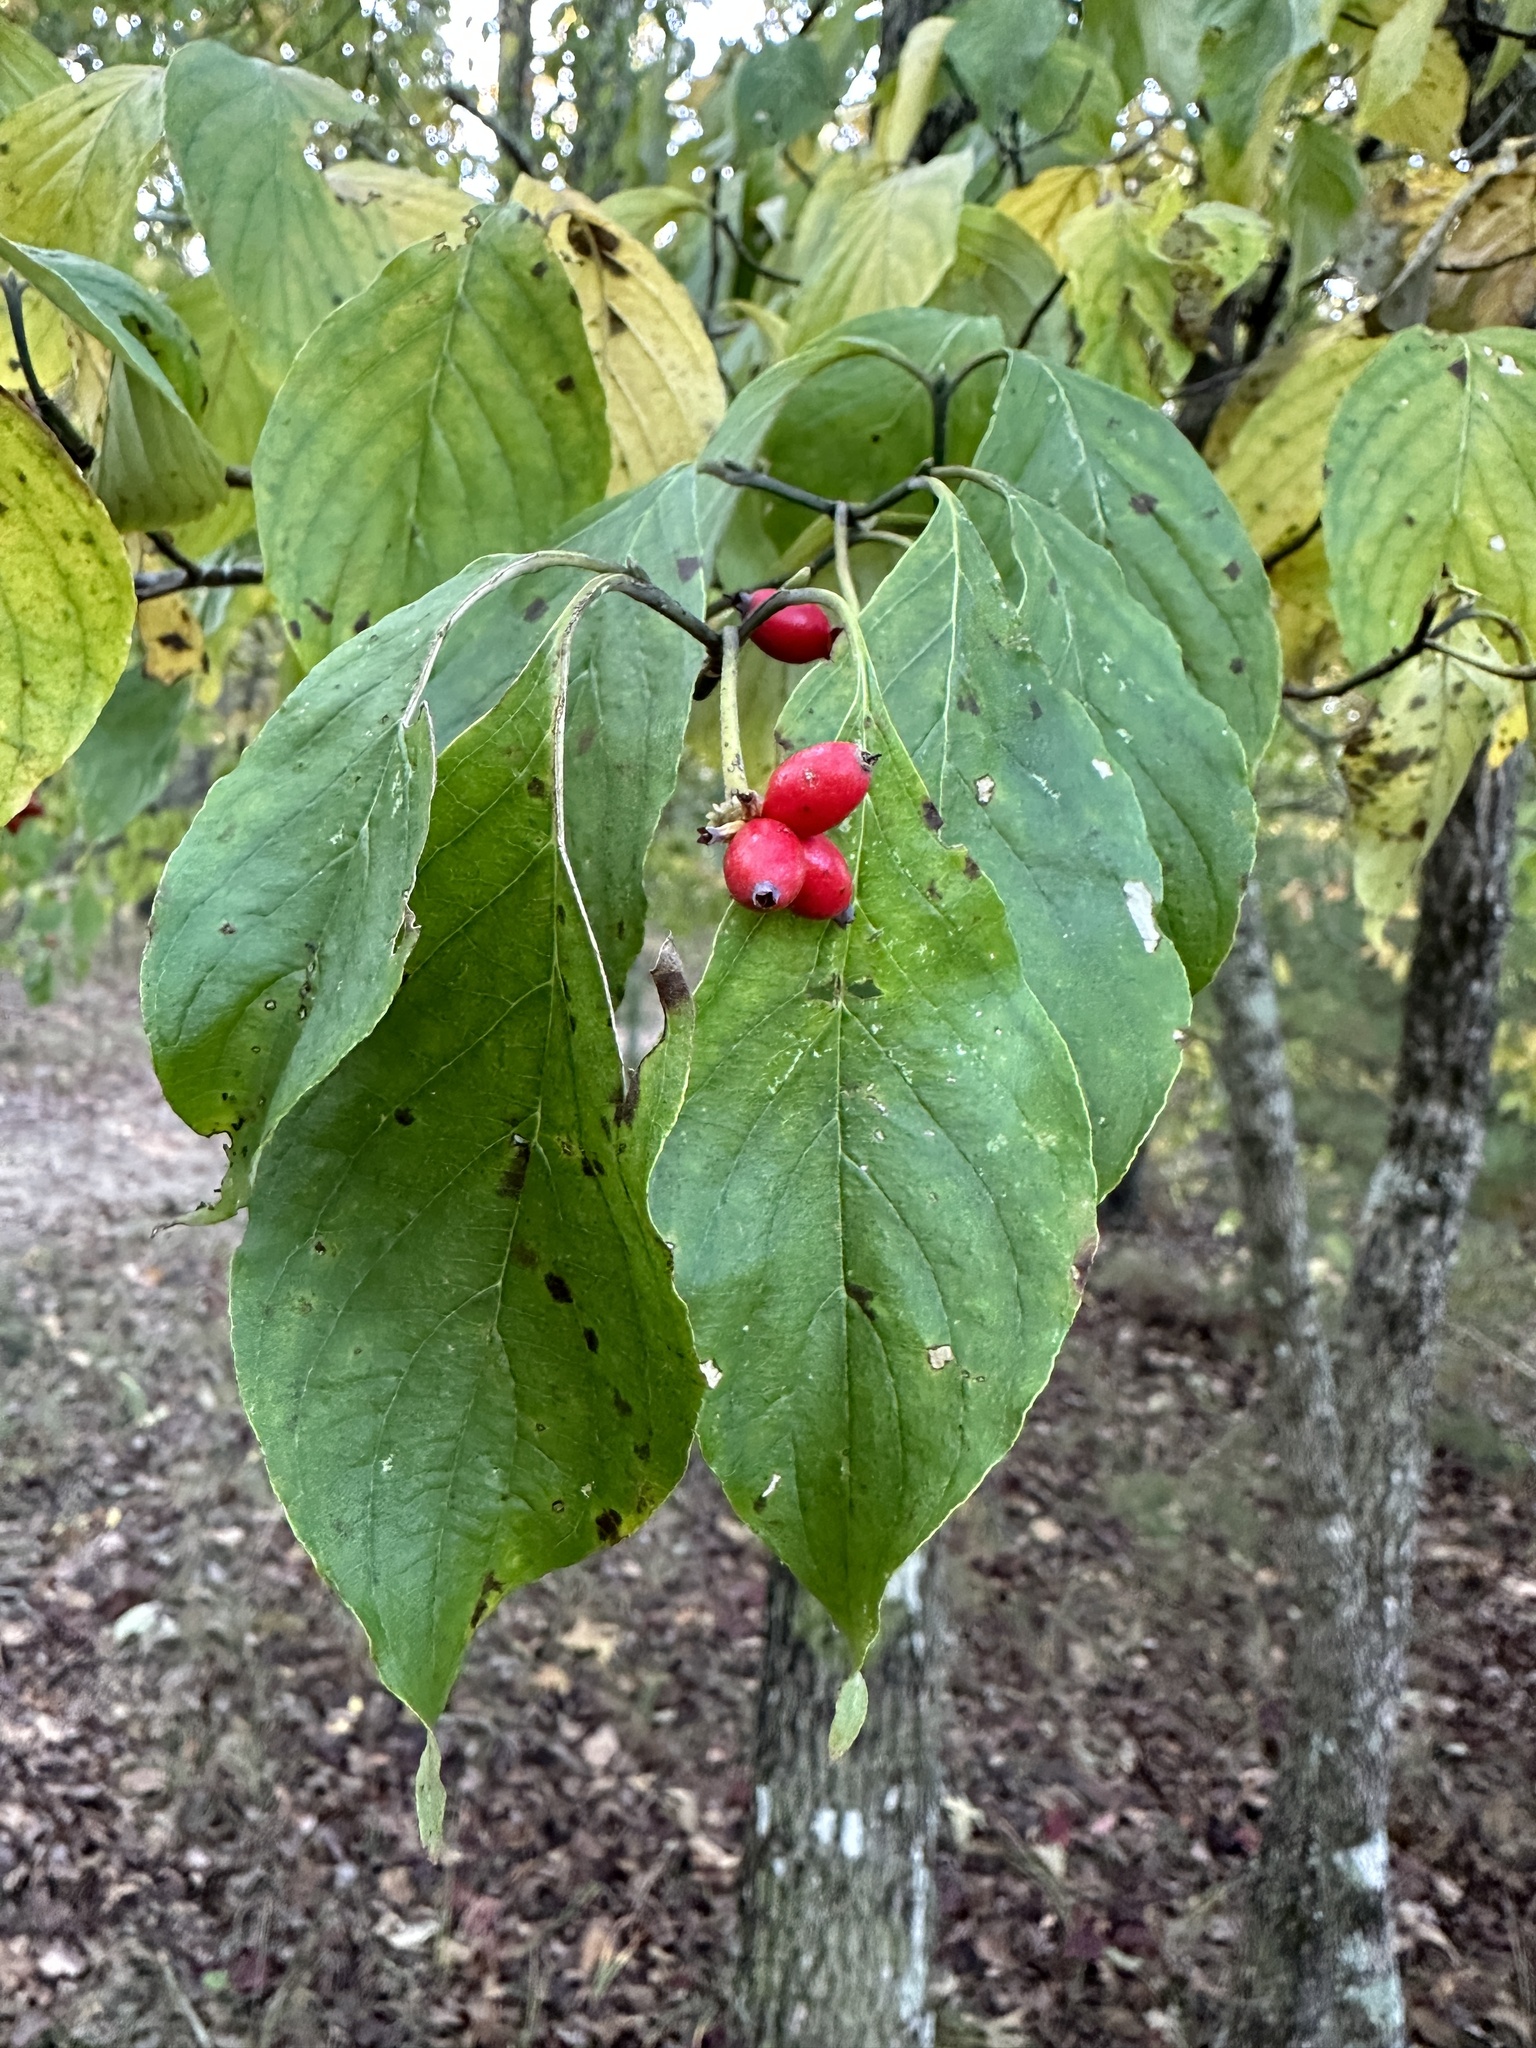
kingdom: Plantae
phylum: Tracheophyta
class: Magnoliopsida
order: Cornales
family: Cornaceae
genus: Cornus
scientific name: Cornus florida
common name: Flowering dogwood
